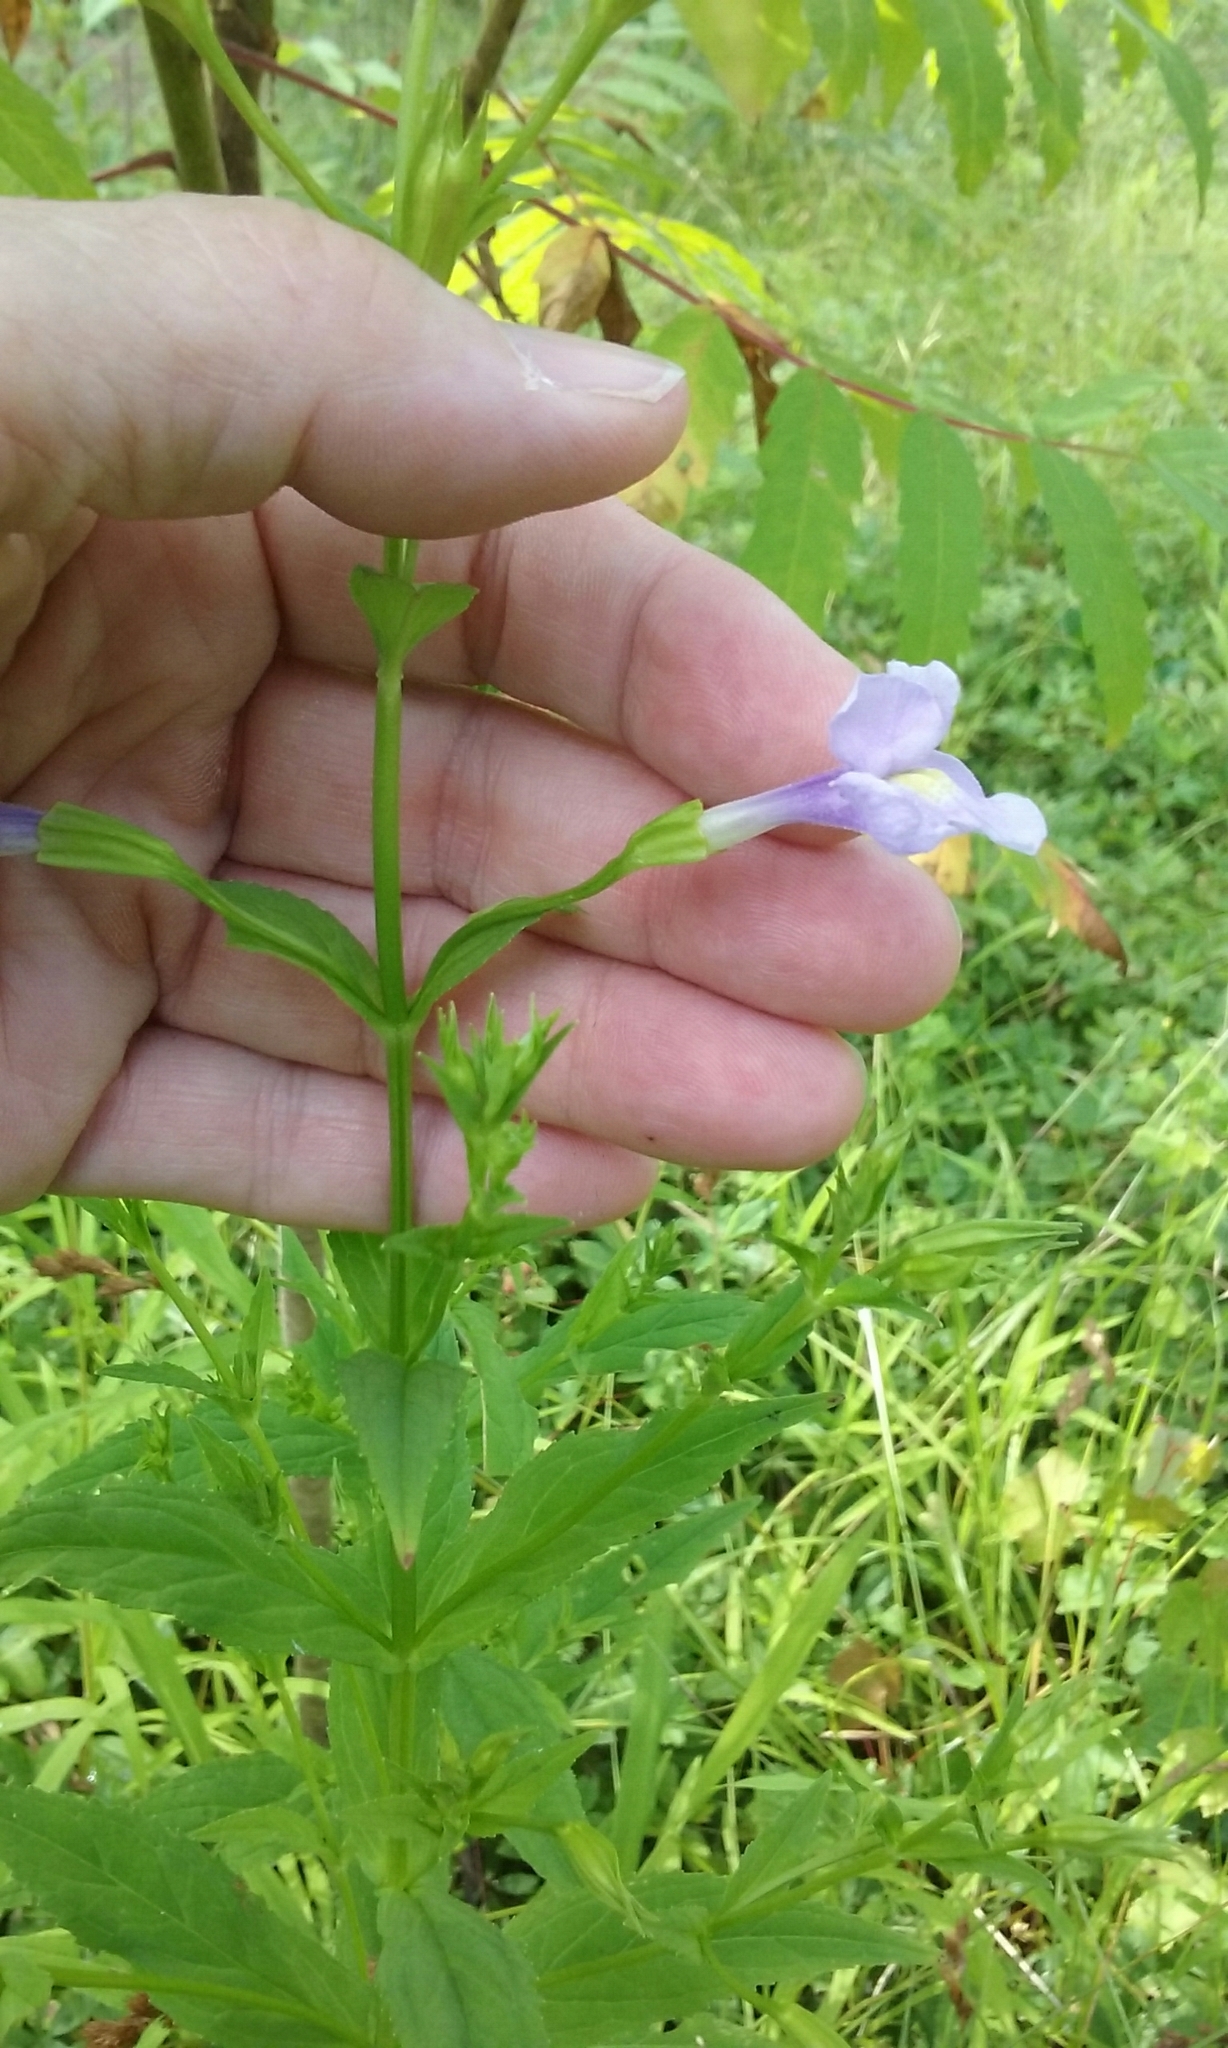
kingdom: Plantae
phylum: Tracheophyta
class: Magnoliopsida
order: Lamiales
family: Phrymaceae
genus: Mimulus
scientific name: Mimulus ringens
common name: Allegheny monkeyflower
